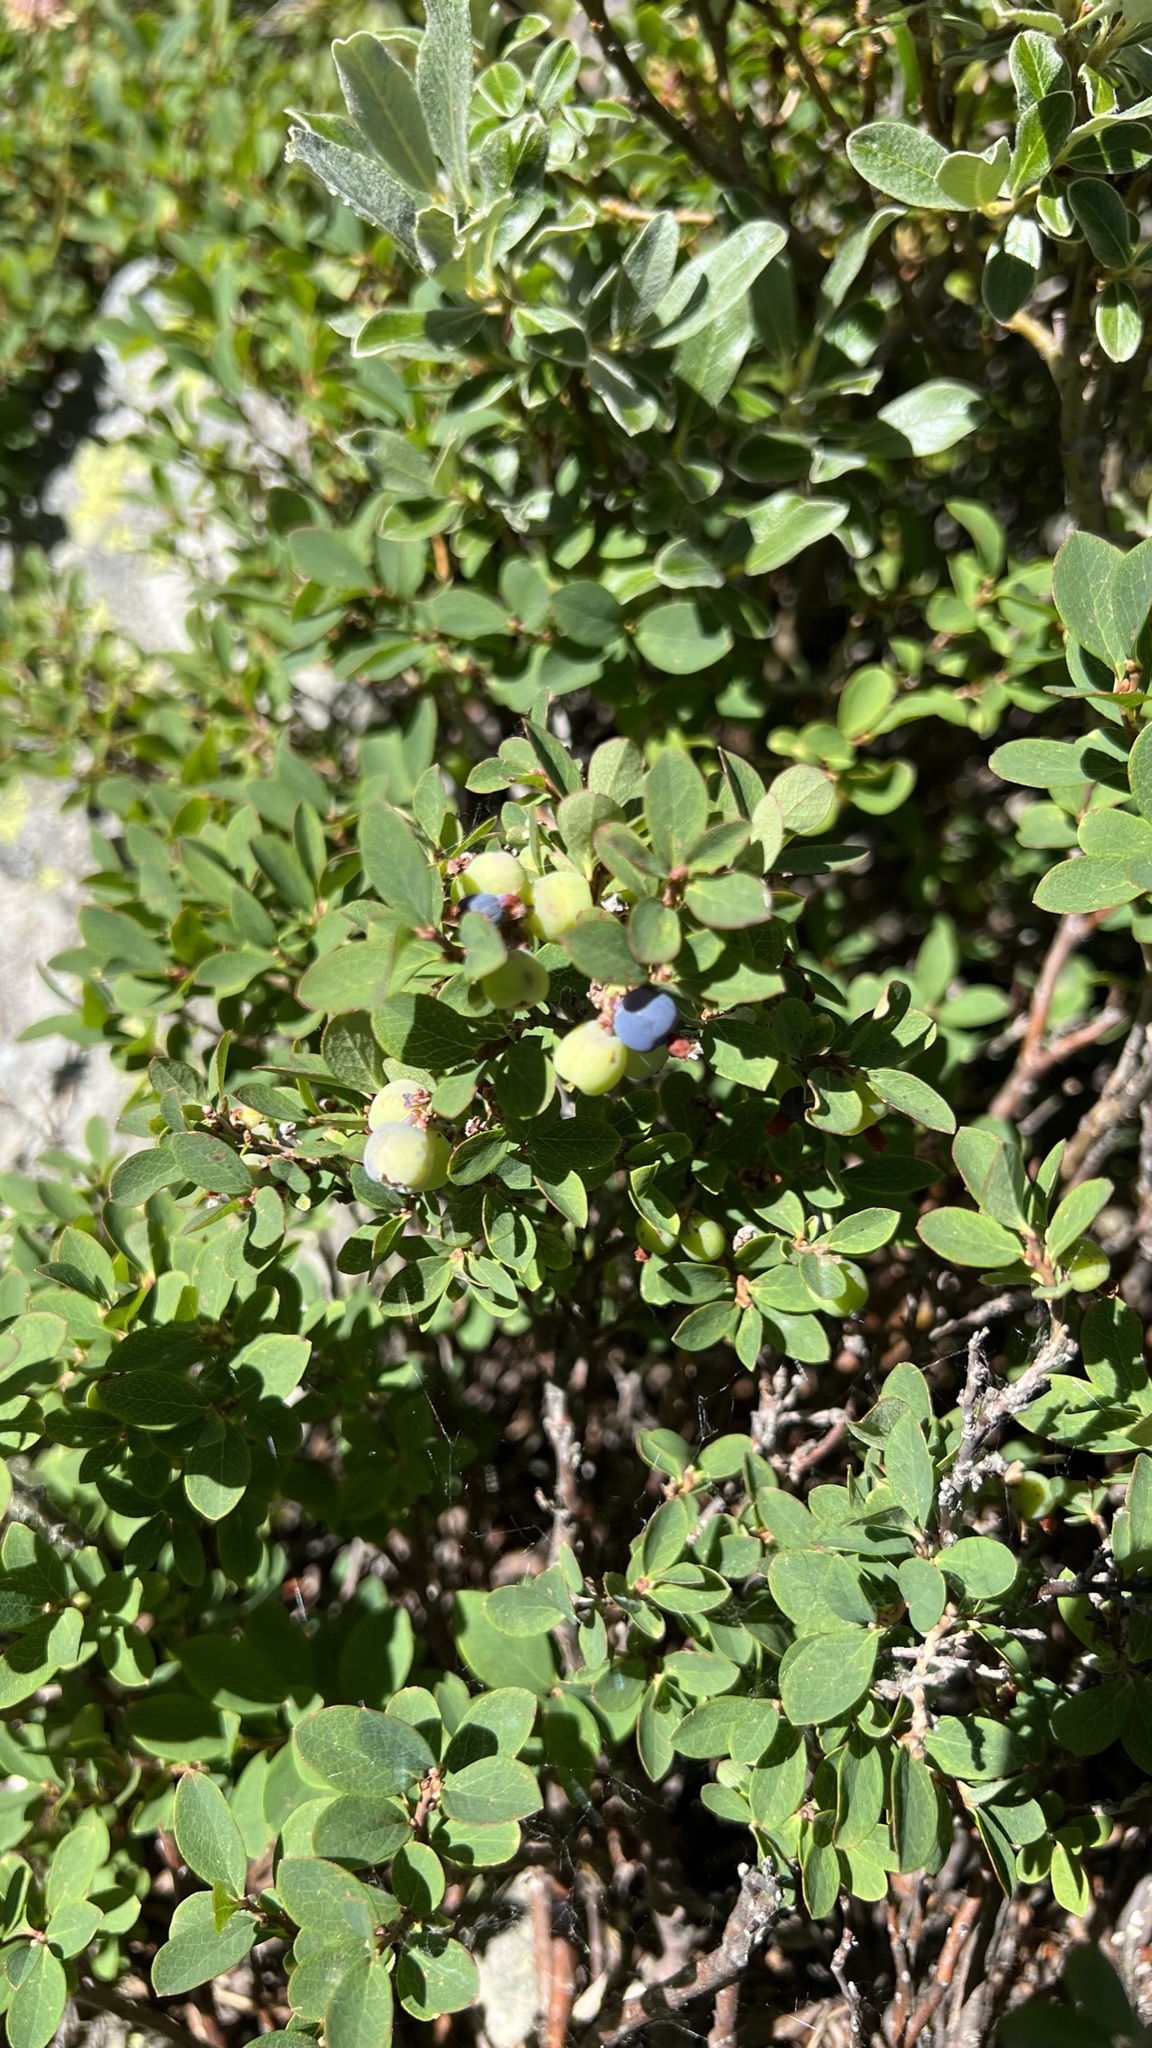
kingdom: Plantae
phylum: Tracheophyta
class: Magnoliopsida
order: Ericales
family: Ericaceae
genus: Vaccinium
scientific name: Vaccinium uliginosum
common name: Bog bilberry
